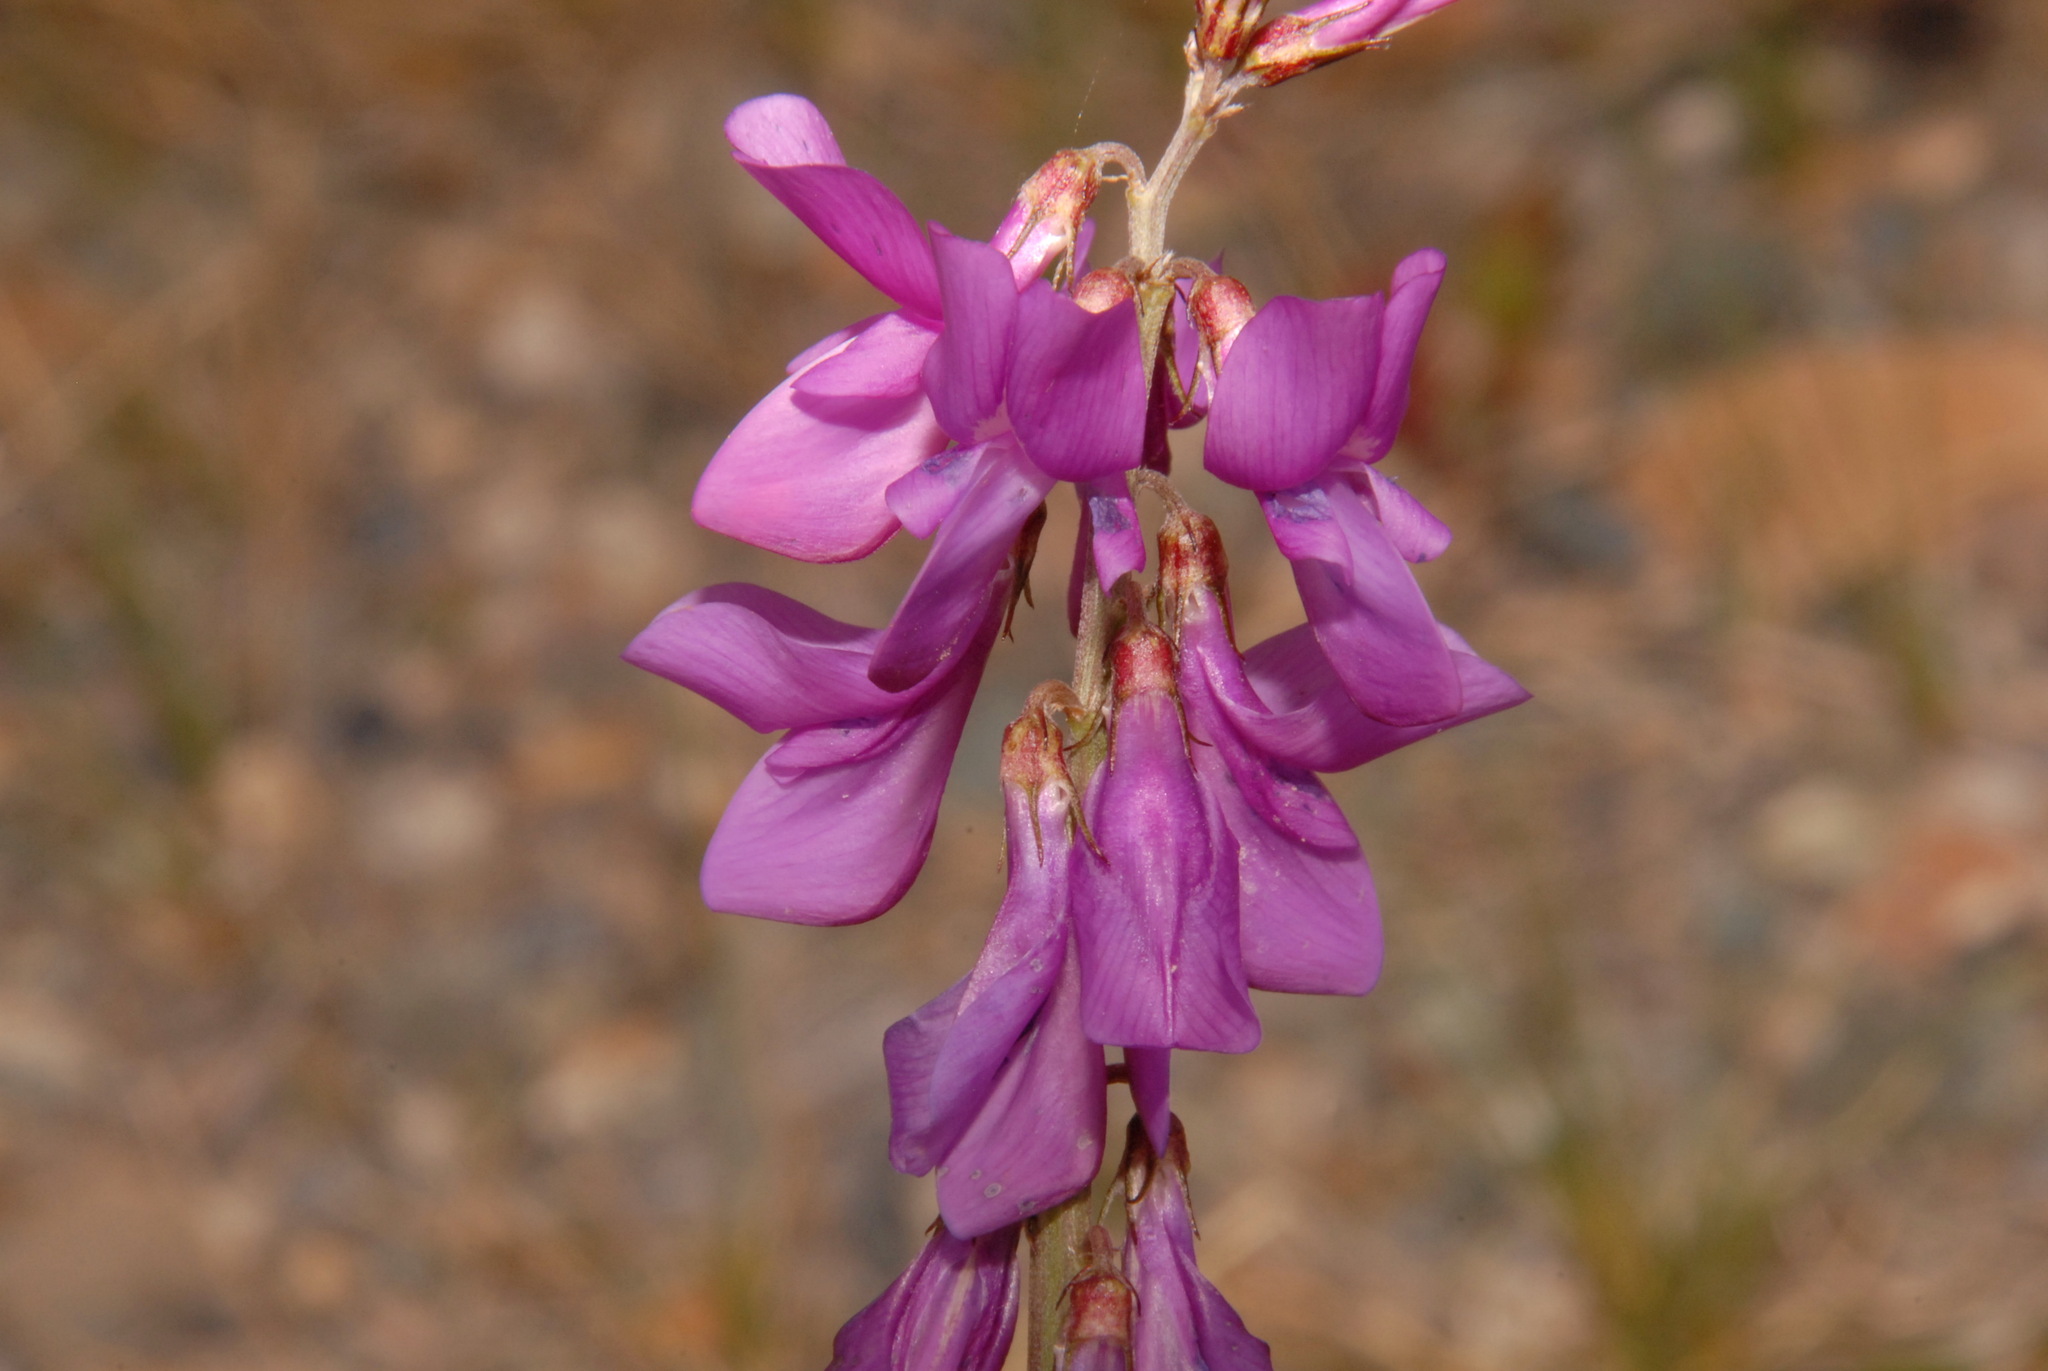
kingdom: Plantae
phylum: Tracheophyta
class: Magnoliopsida
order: Fabales
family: Fabaceae
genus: Hedysarum
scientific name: Hedysarum boreale
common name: Northern sweet-vetch
